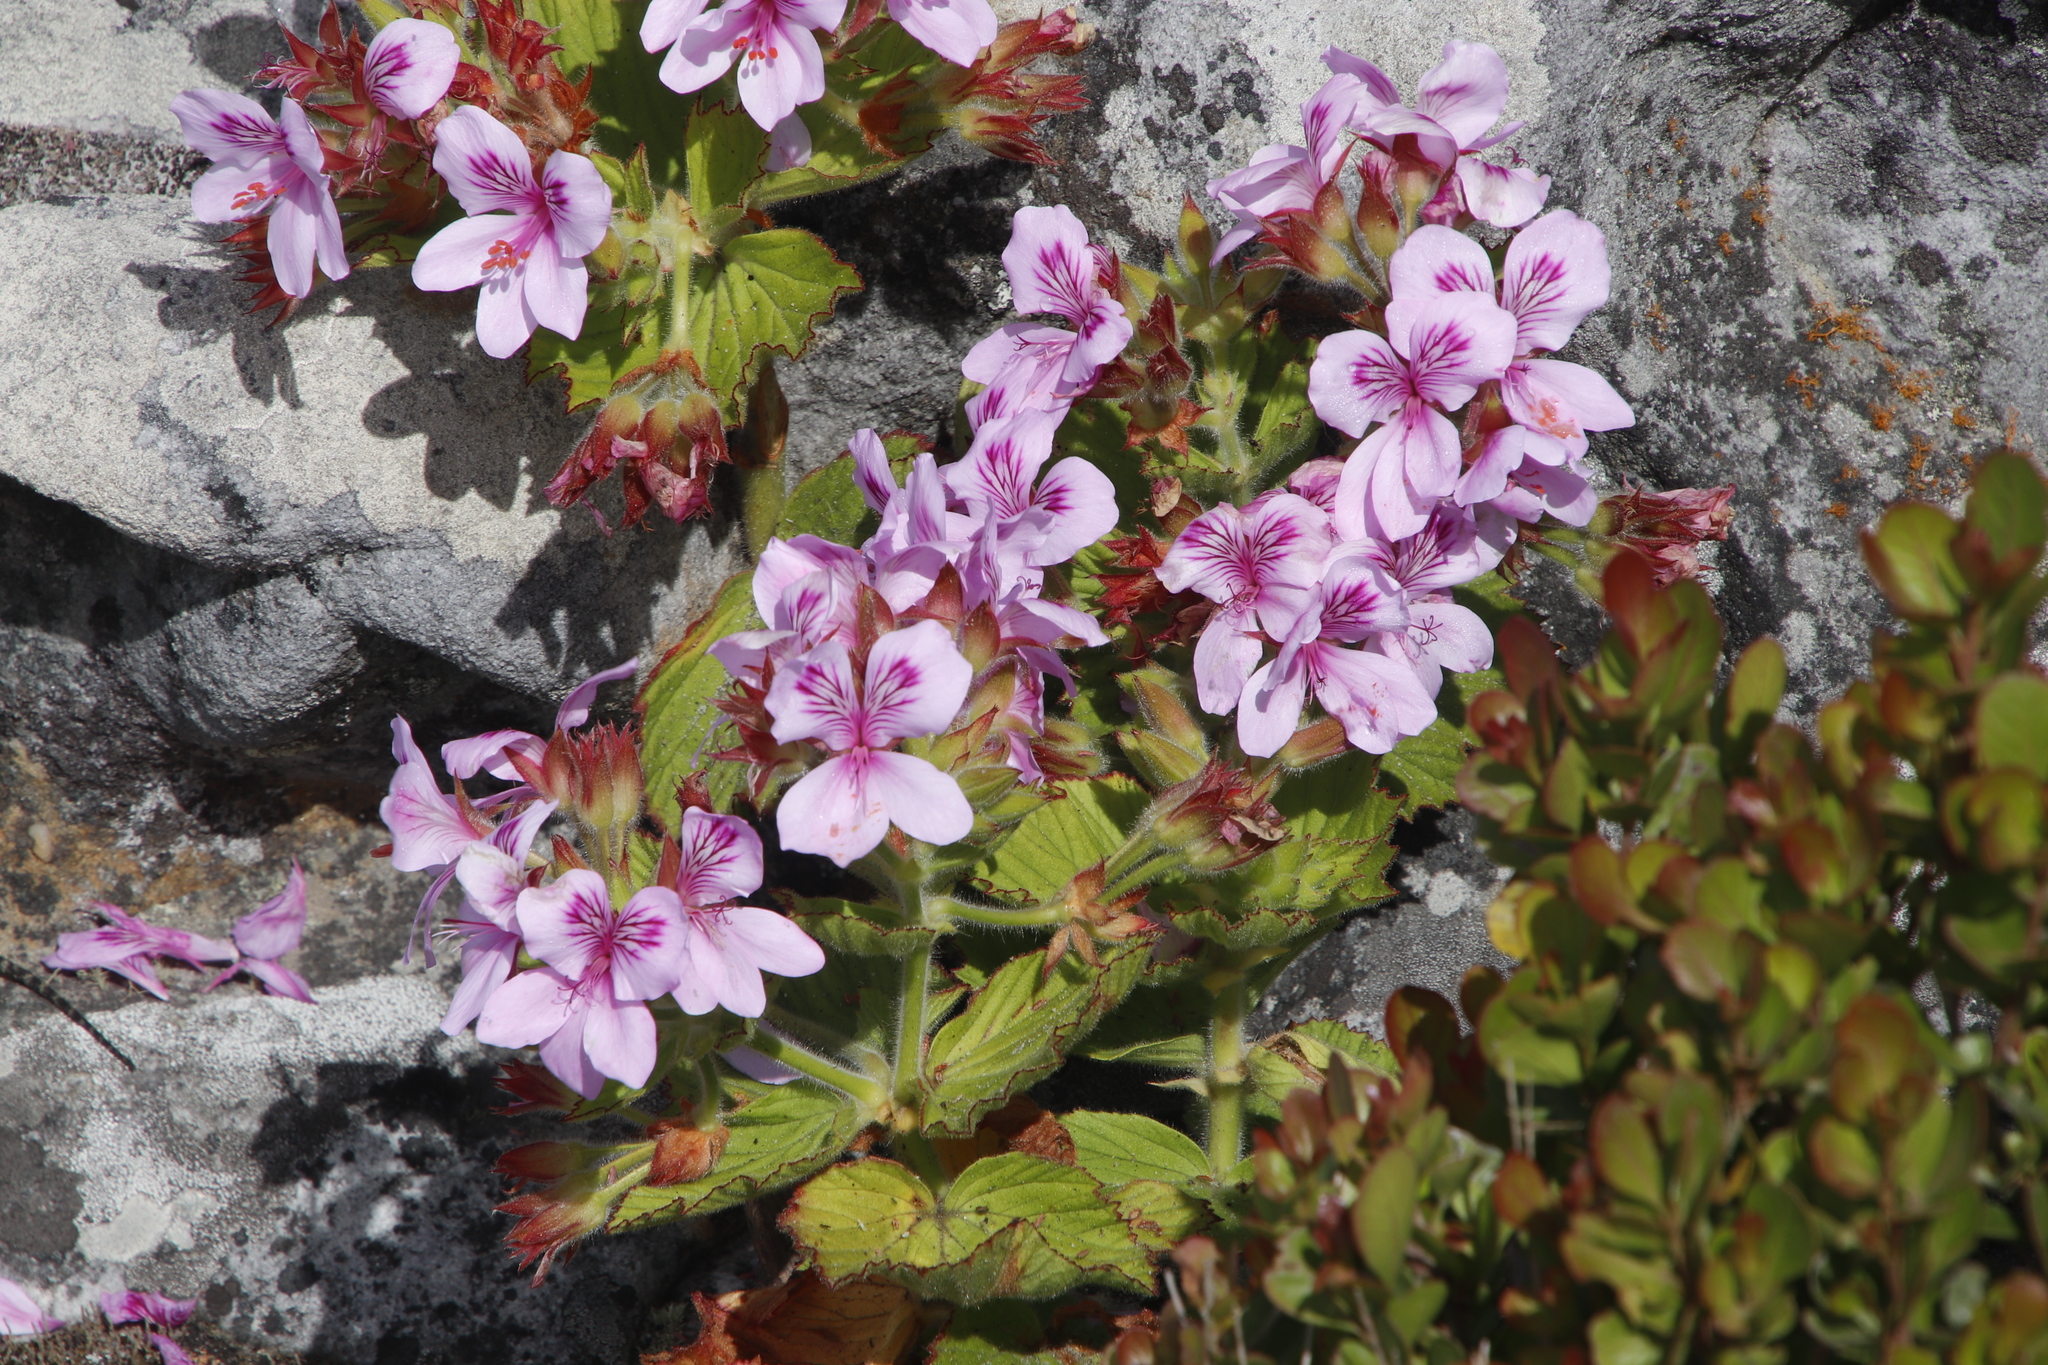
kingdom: Plantae
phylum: Tracheophyta
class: Magnoliopsida
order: Geraniales
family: Geraniaceae
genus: Pelargonium
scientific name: Pelargonium cucullatum
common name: Tree pelargonium
